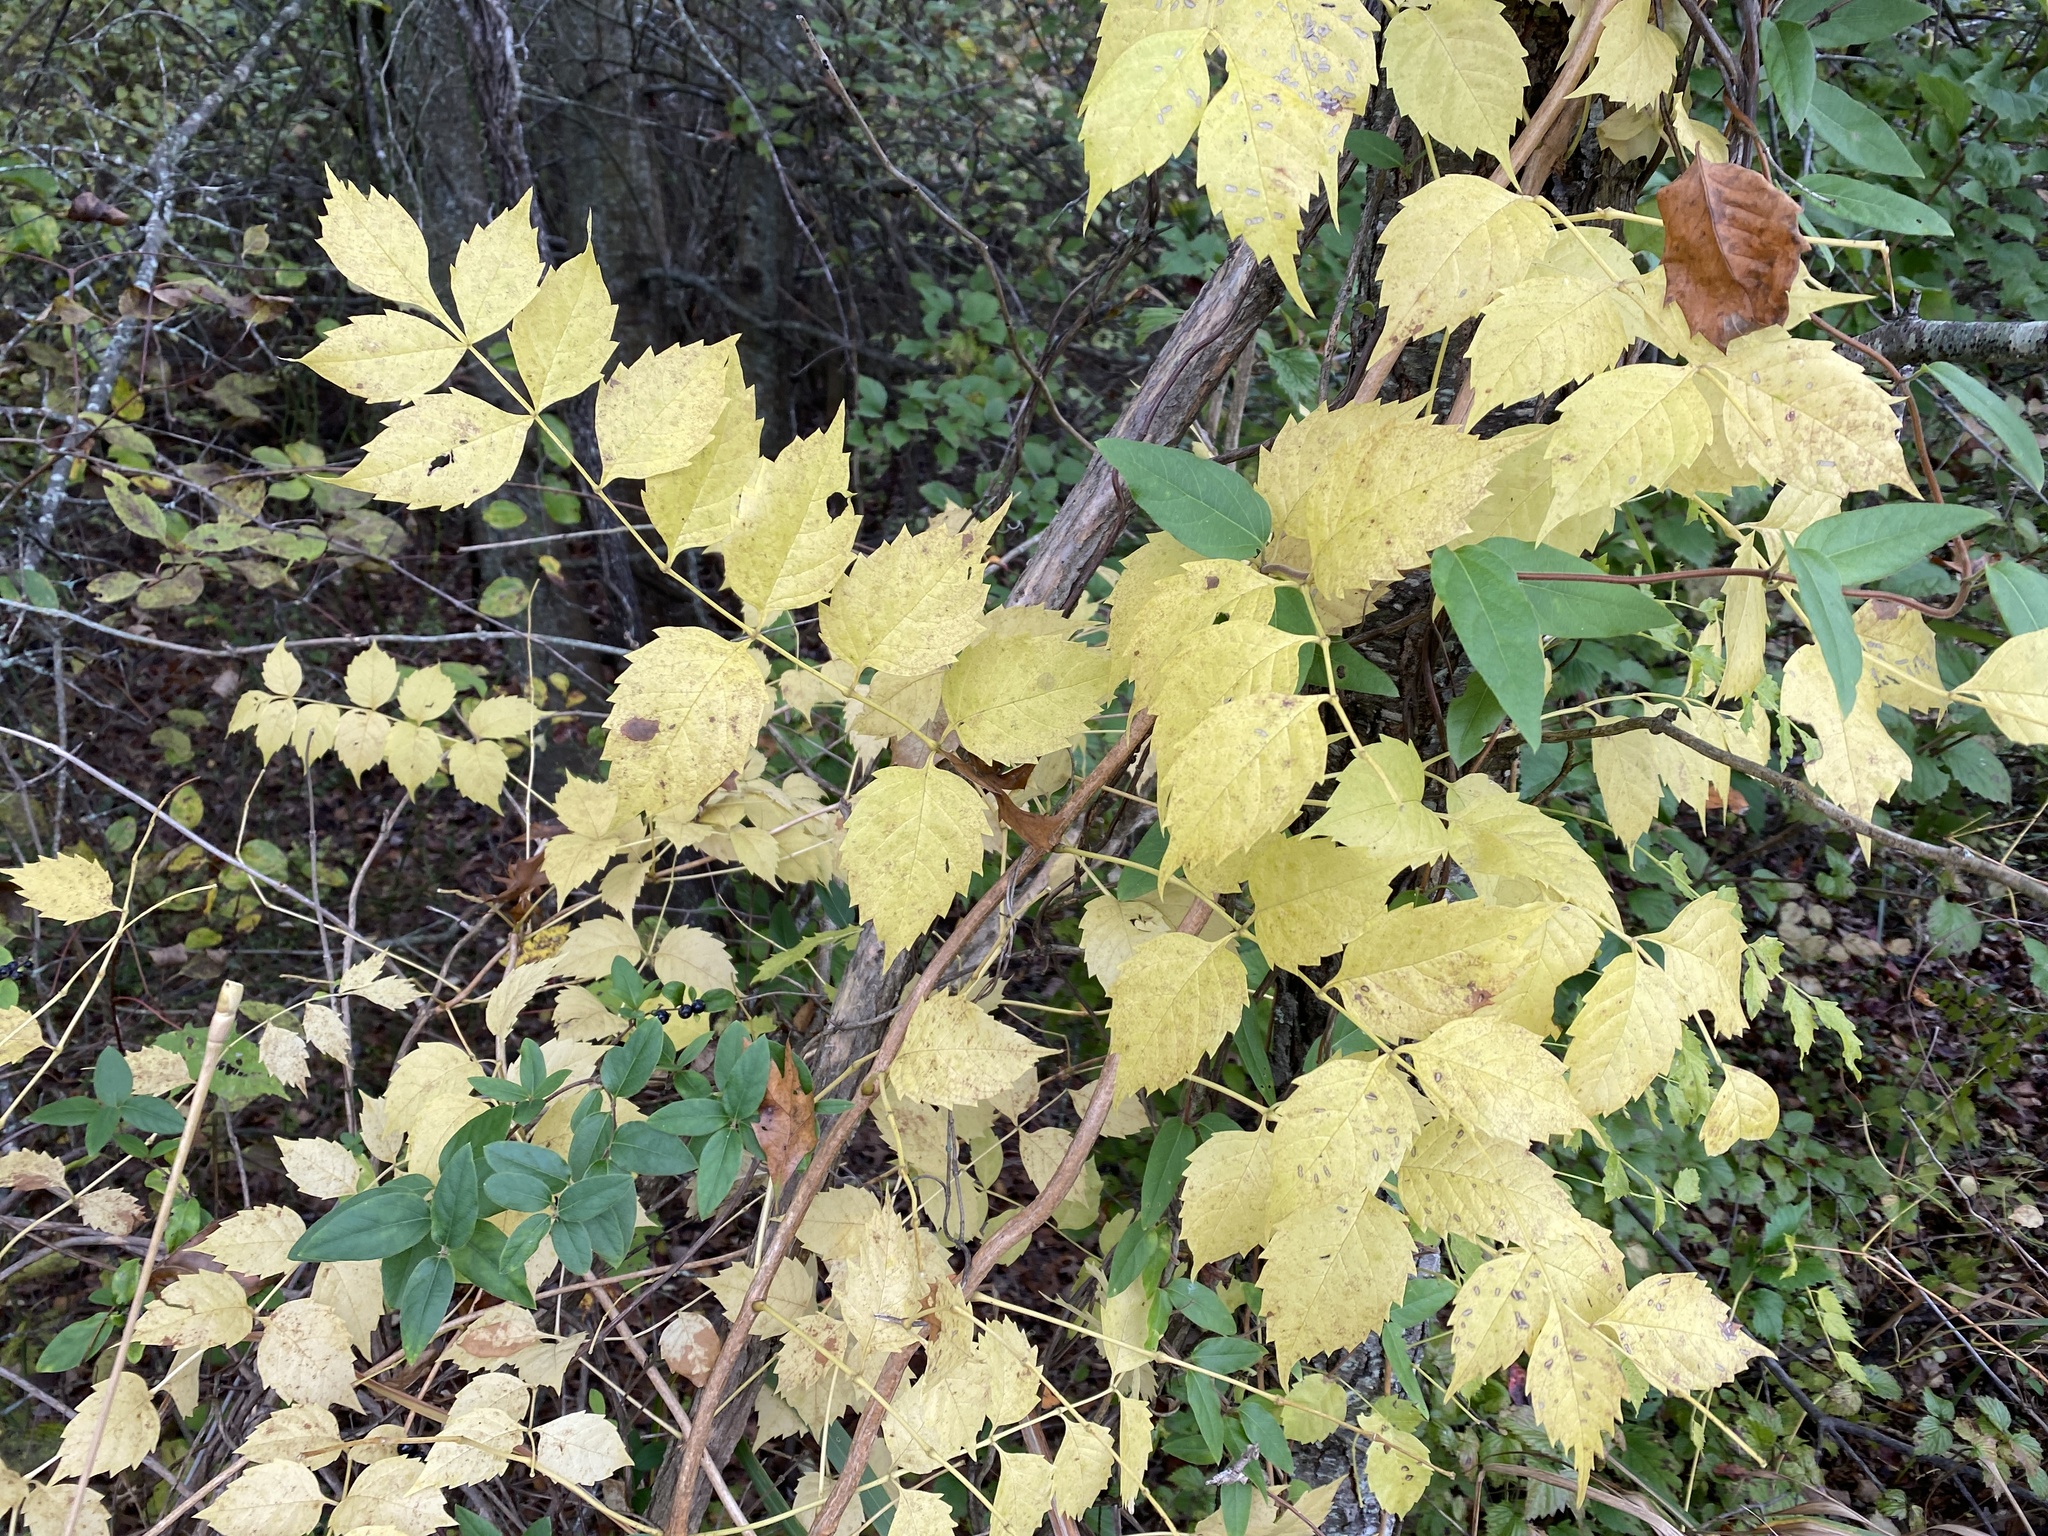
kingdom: Plantae
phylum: Tracheophyta
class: Magnoliopsida
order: Lamiales
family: Bignoniaceae
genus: Campsis
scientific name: Campsis radicans
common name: Trumpet-creeper
